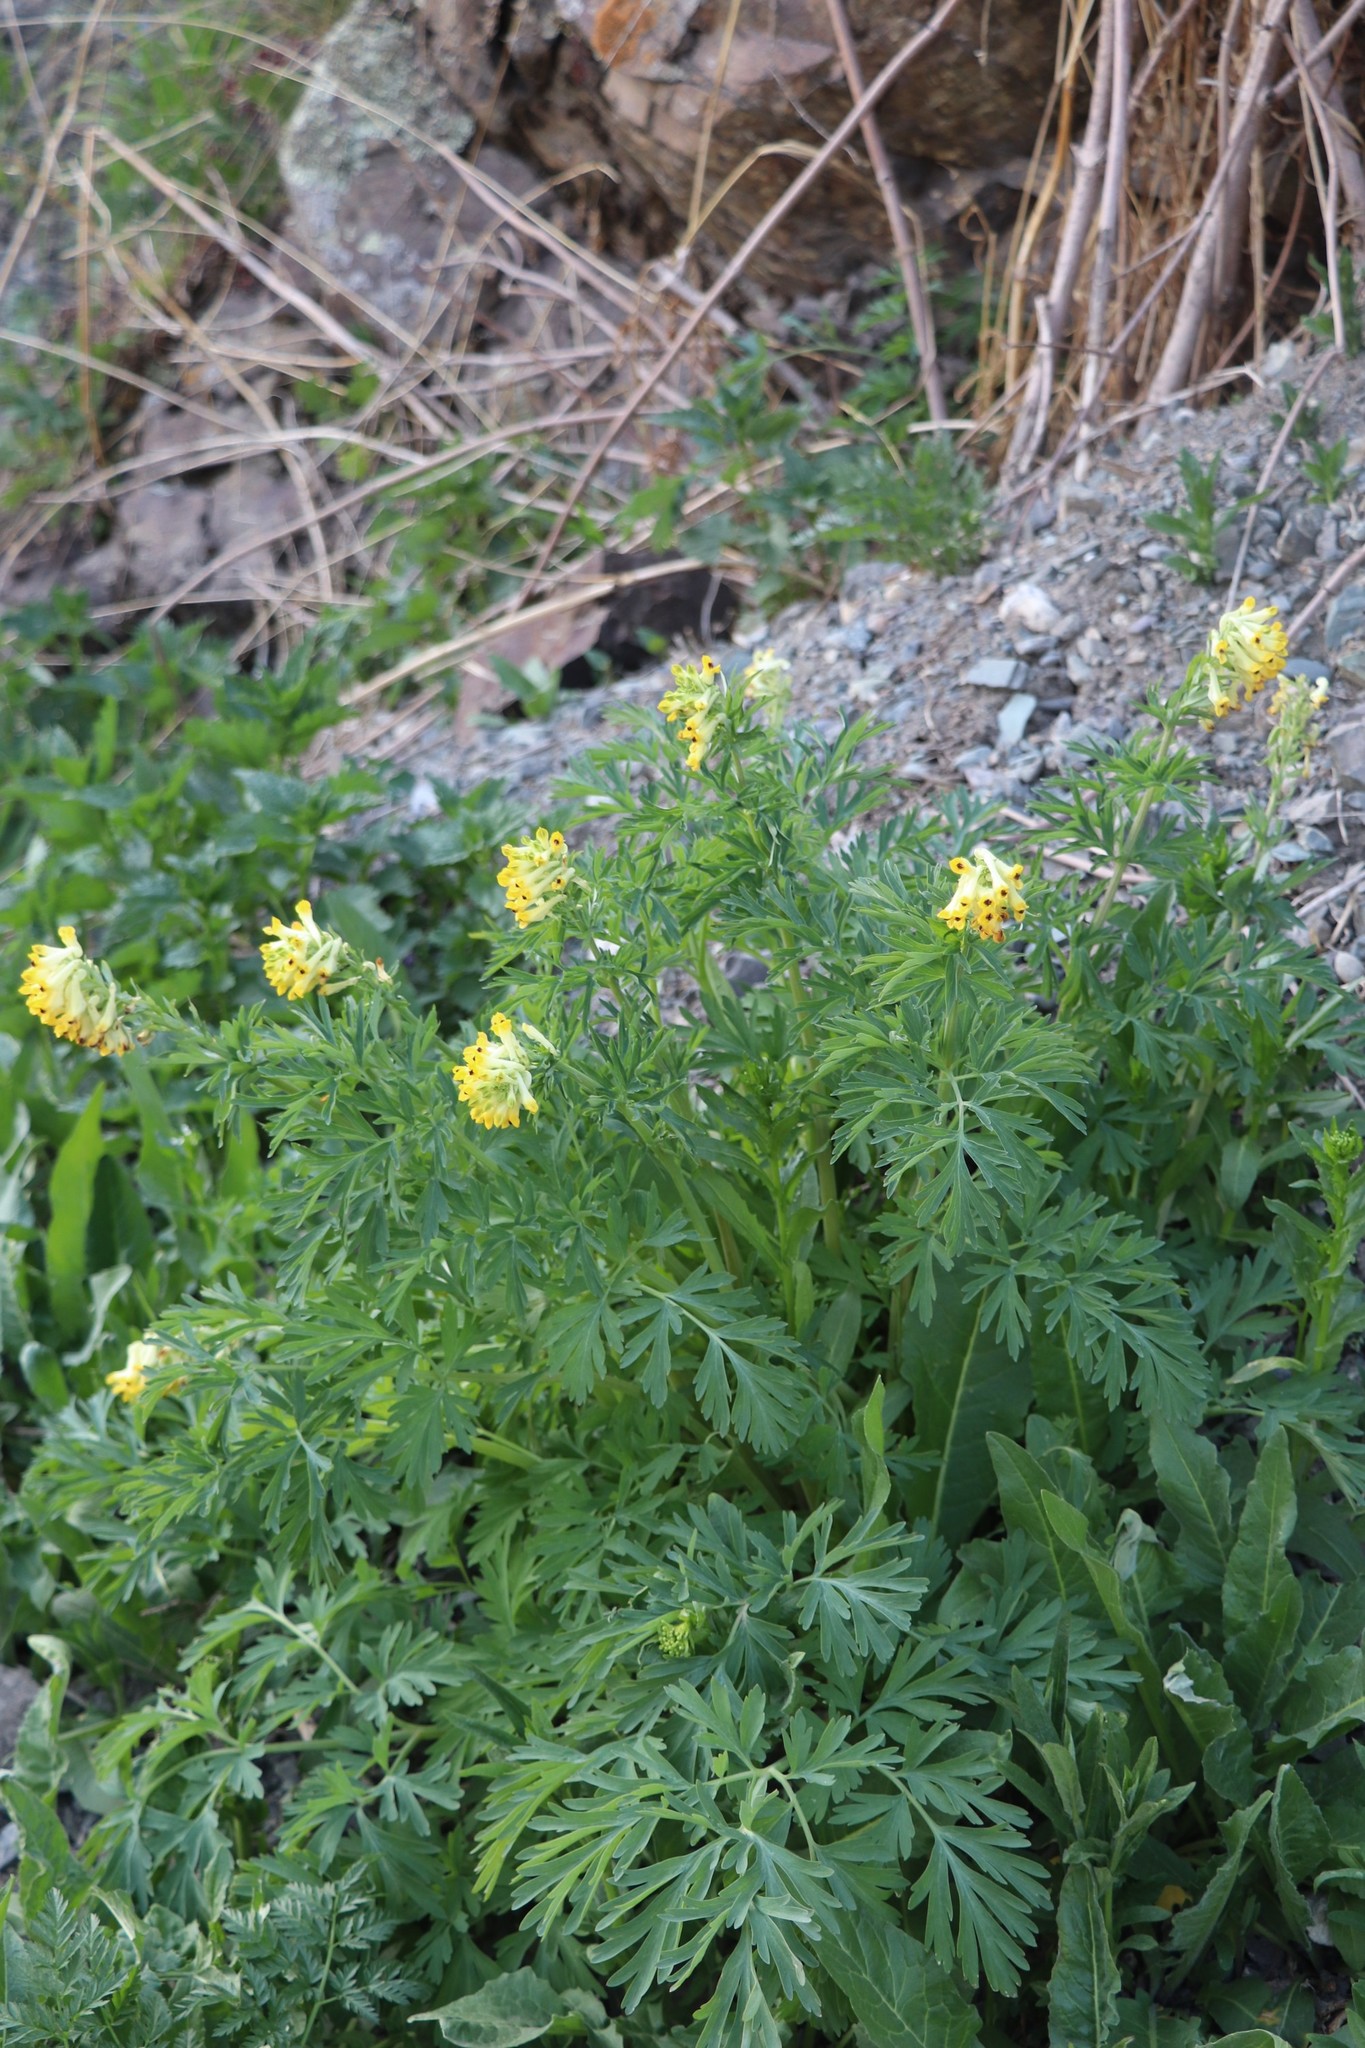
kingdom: Plantae
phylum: Tracheophyta
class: Magnoliopsida
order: Ranunculales
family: Papaveraceae
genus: Corydalis
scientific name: Corydalis nobilis
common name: Siberian corydalis
